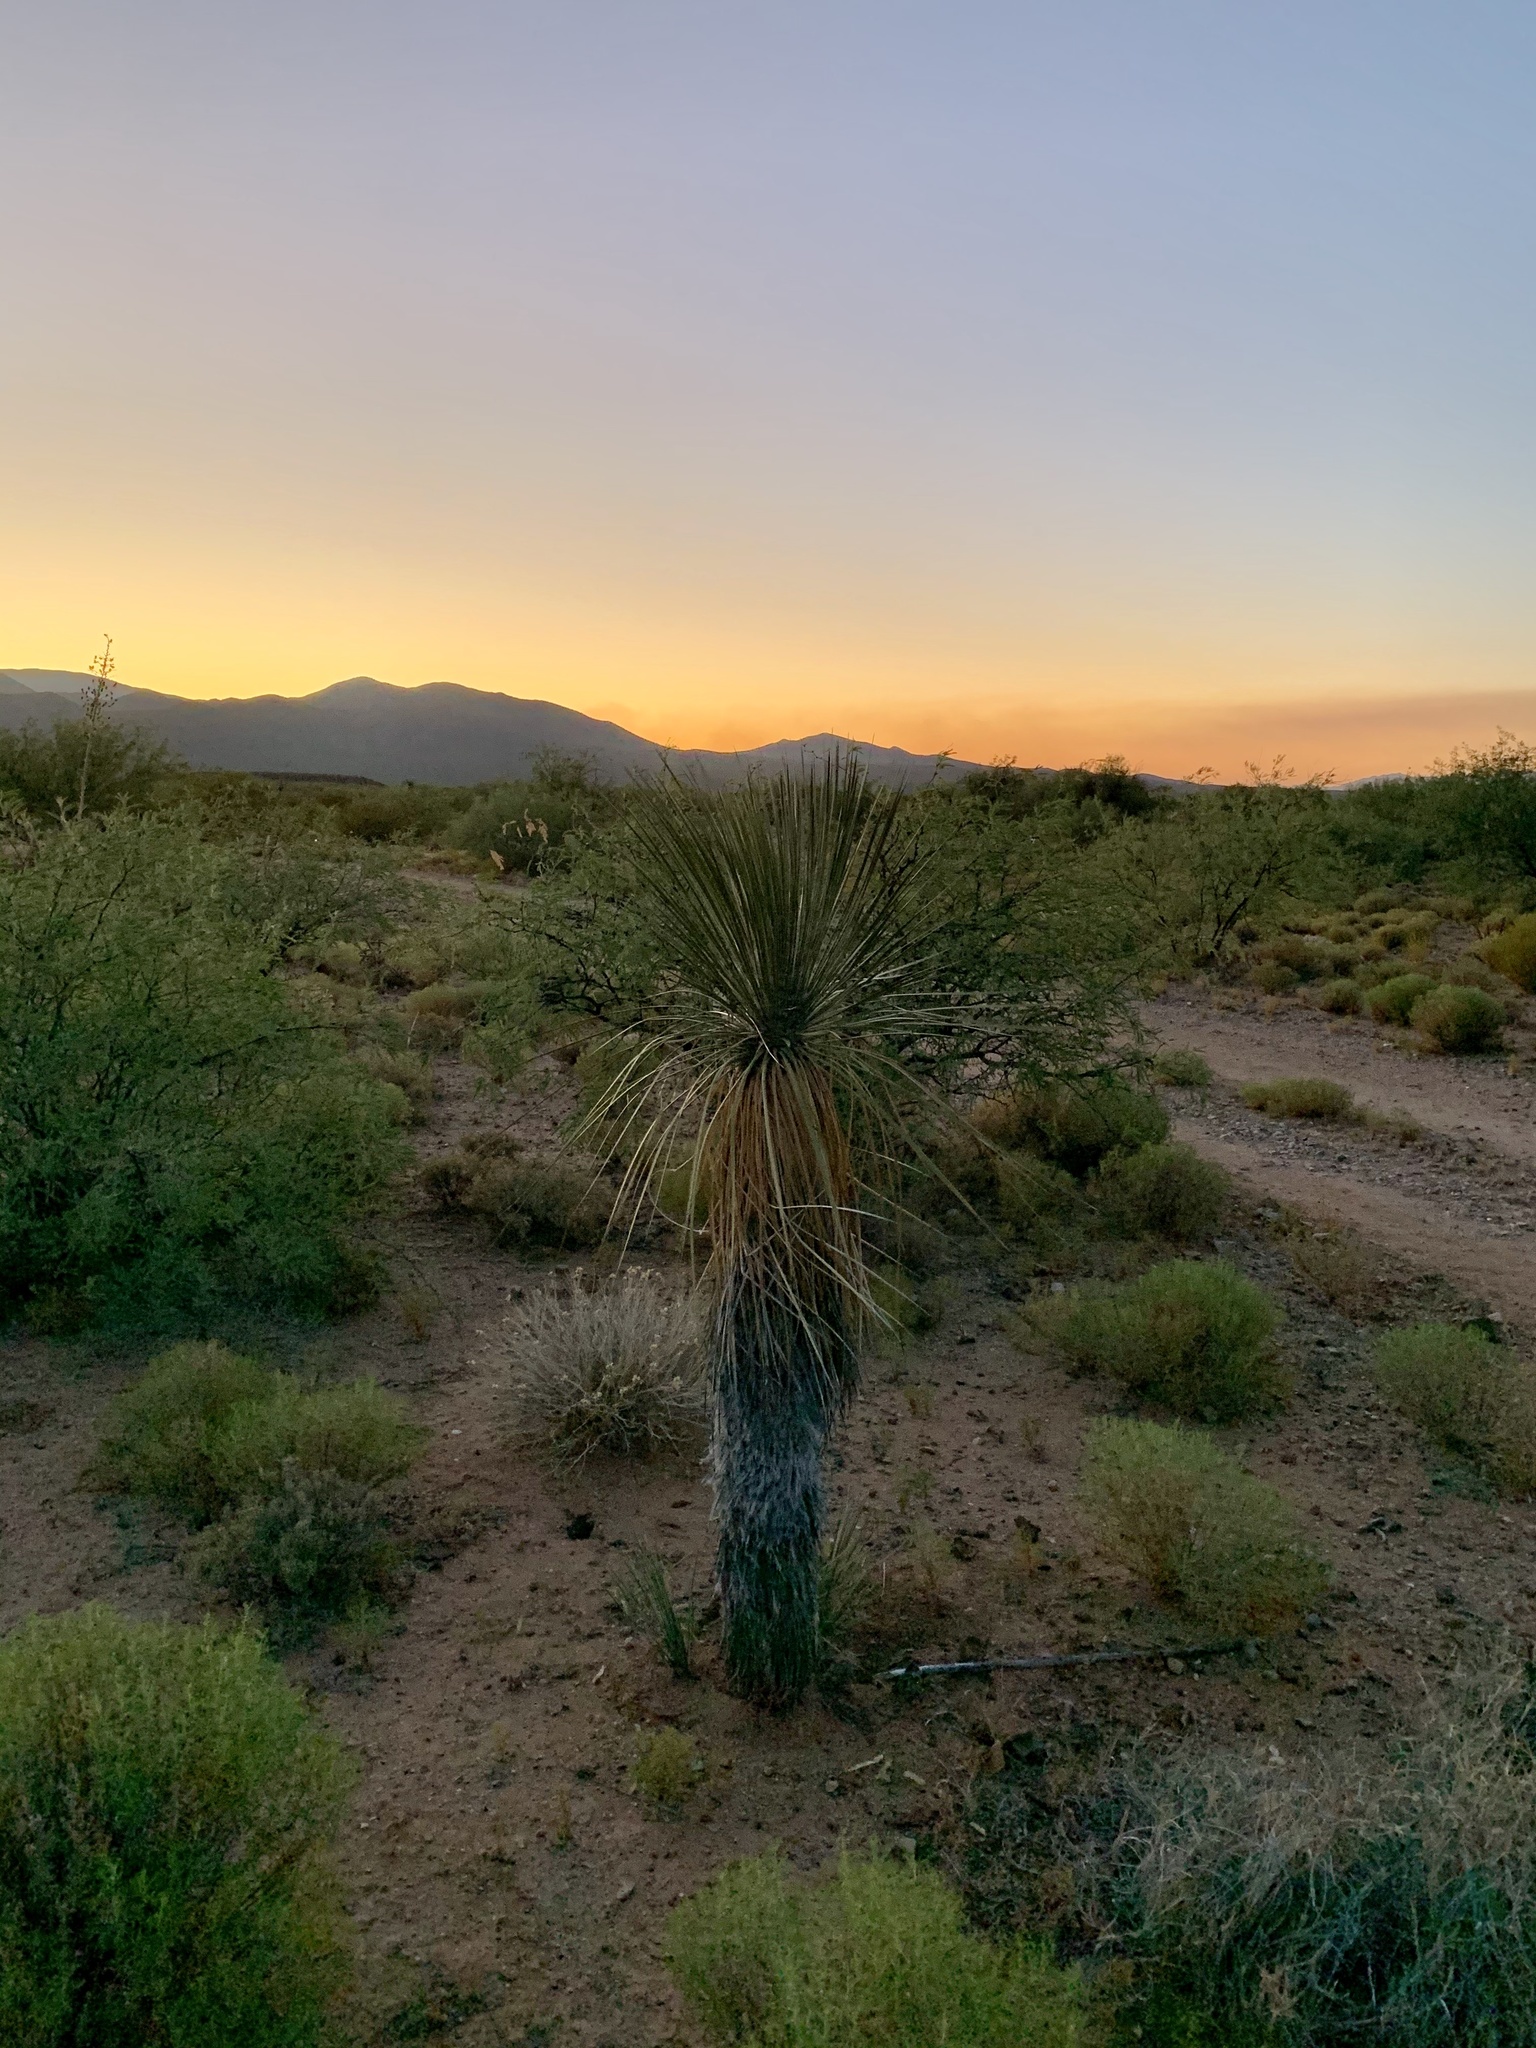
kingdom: Plantae
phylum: Tracheophyta
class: Liliopsida
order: Asparagales
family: Asparagaceae
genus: Yucca
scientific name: Yucca elata
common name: Palmella
